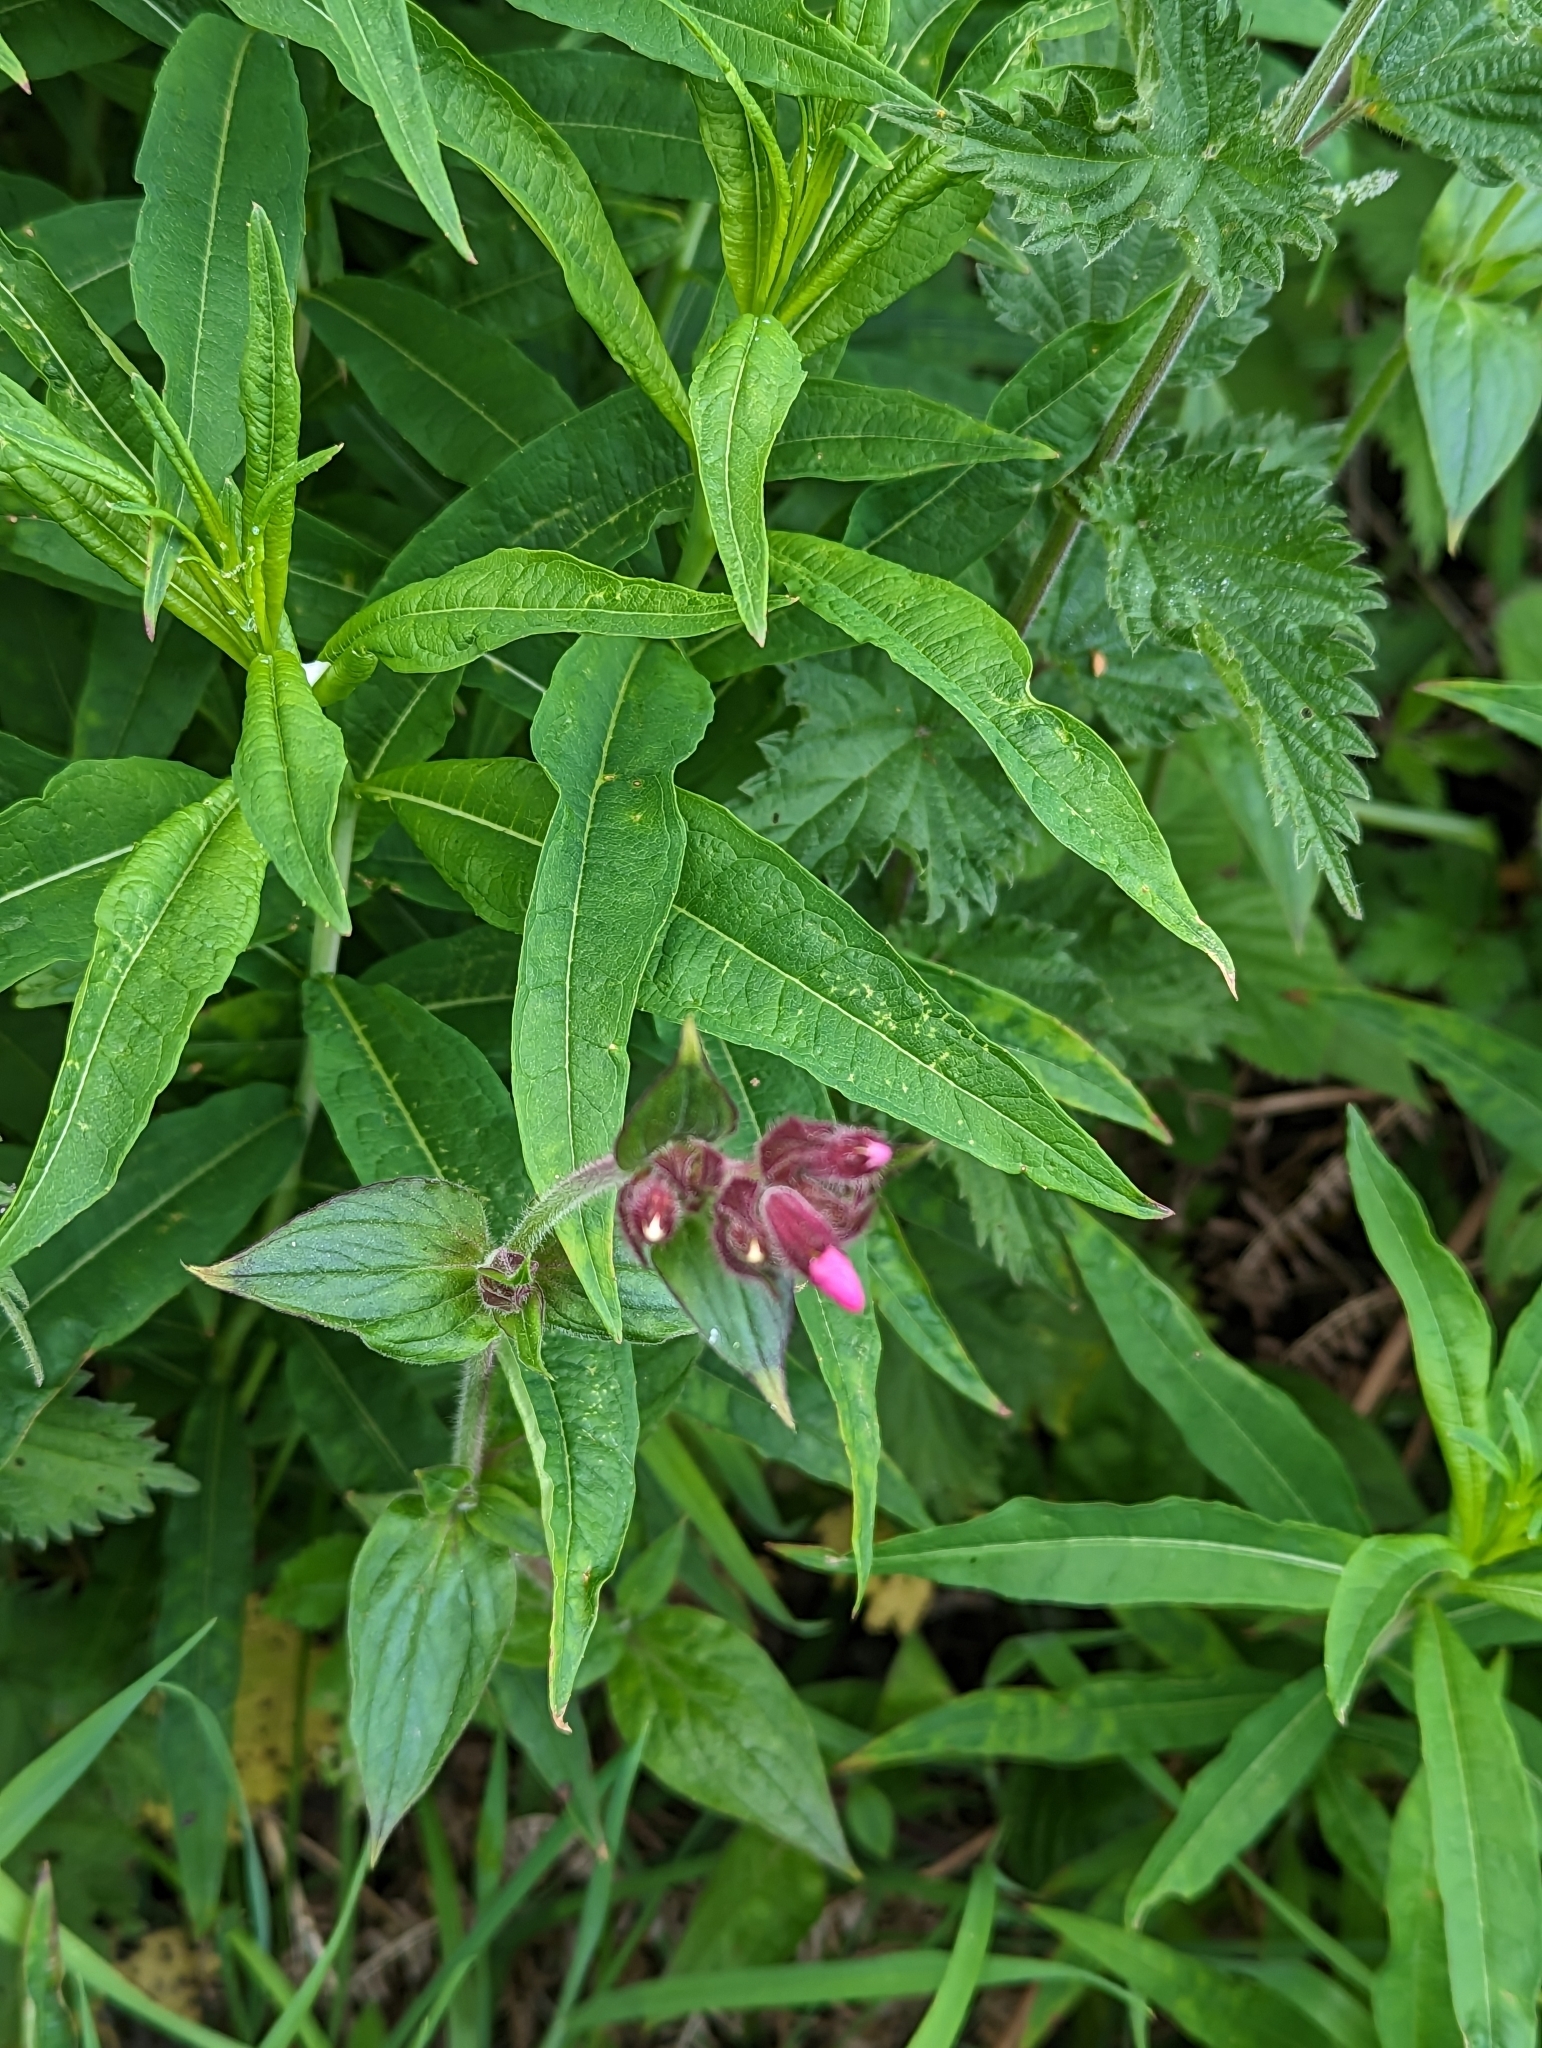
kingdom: Plantae
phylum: Tracheophyta
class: Magnoliopsida
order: Caryophyllales
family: Caryophyllaceae
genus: Silene
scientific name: Silene dioica
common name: Red campion
